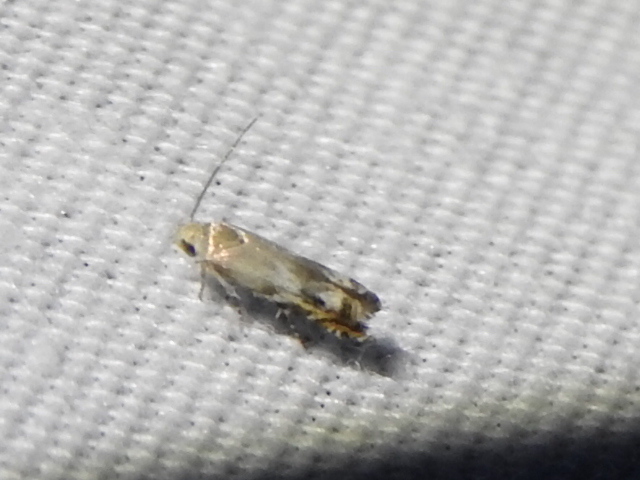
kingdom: Animalia
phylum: Arthropoda
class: Insecta
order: Lepidoptera
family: Gelechiidae
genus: Calliprora
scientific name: Calliprora sexstrigella
